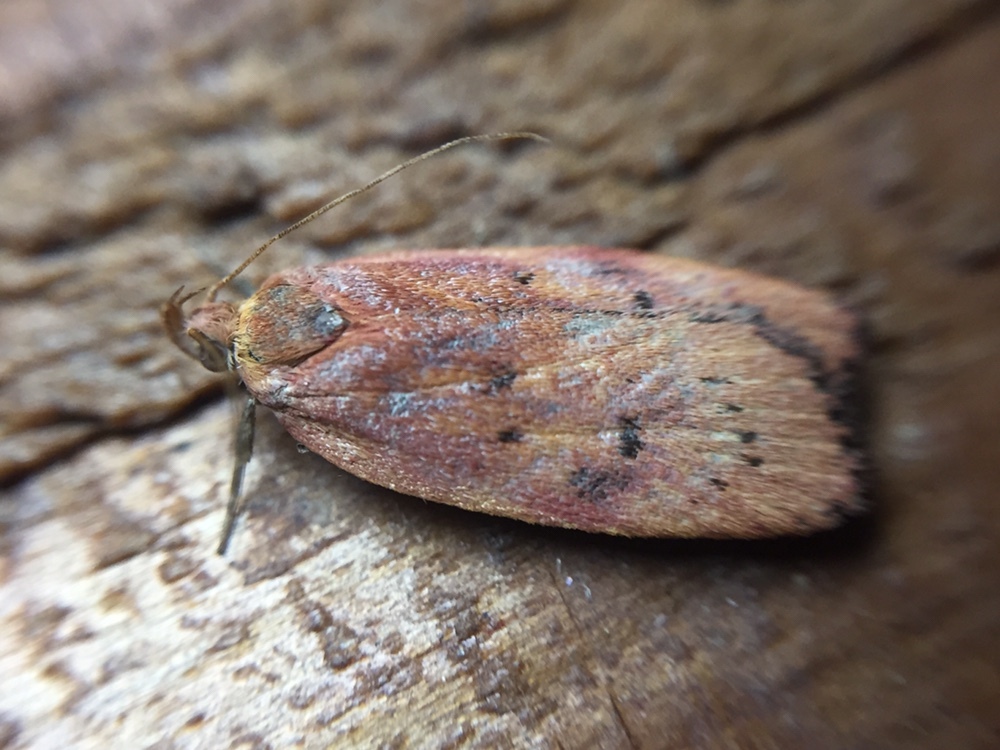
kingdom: Animalia
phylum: Arthropoda
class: Insecta
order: Lepidoptera
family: Depressariidae
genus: Phaeosaces
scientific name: Phaeosaces coarctatella
